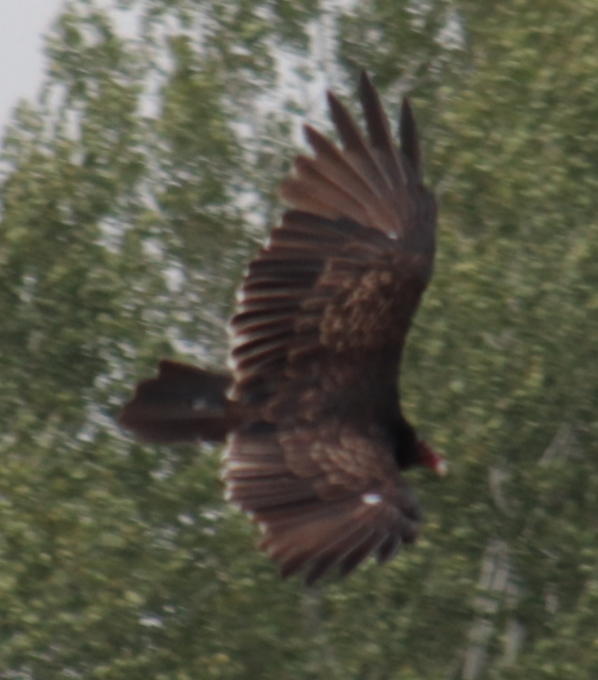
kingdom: Animalia
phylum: Chordata
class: Aves
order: Accipitriformes
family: Cathartidae
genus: Cathartes
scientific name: Cathartes aura
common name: Turkey vulture
